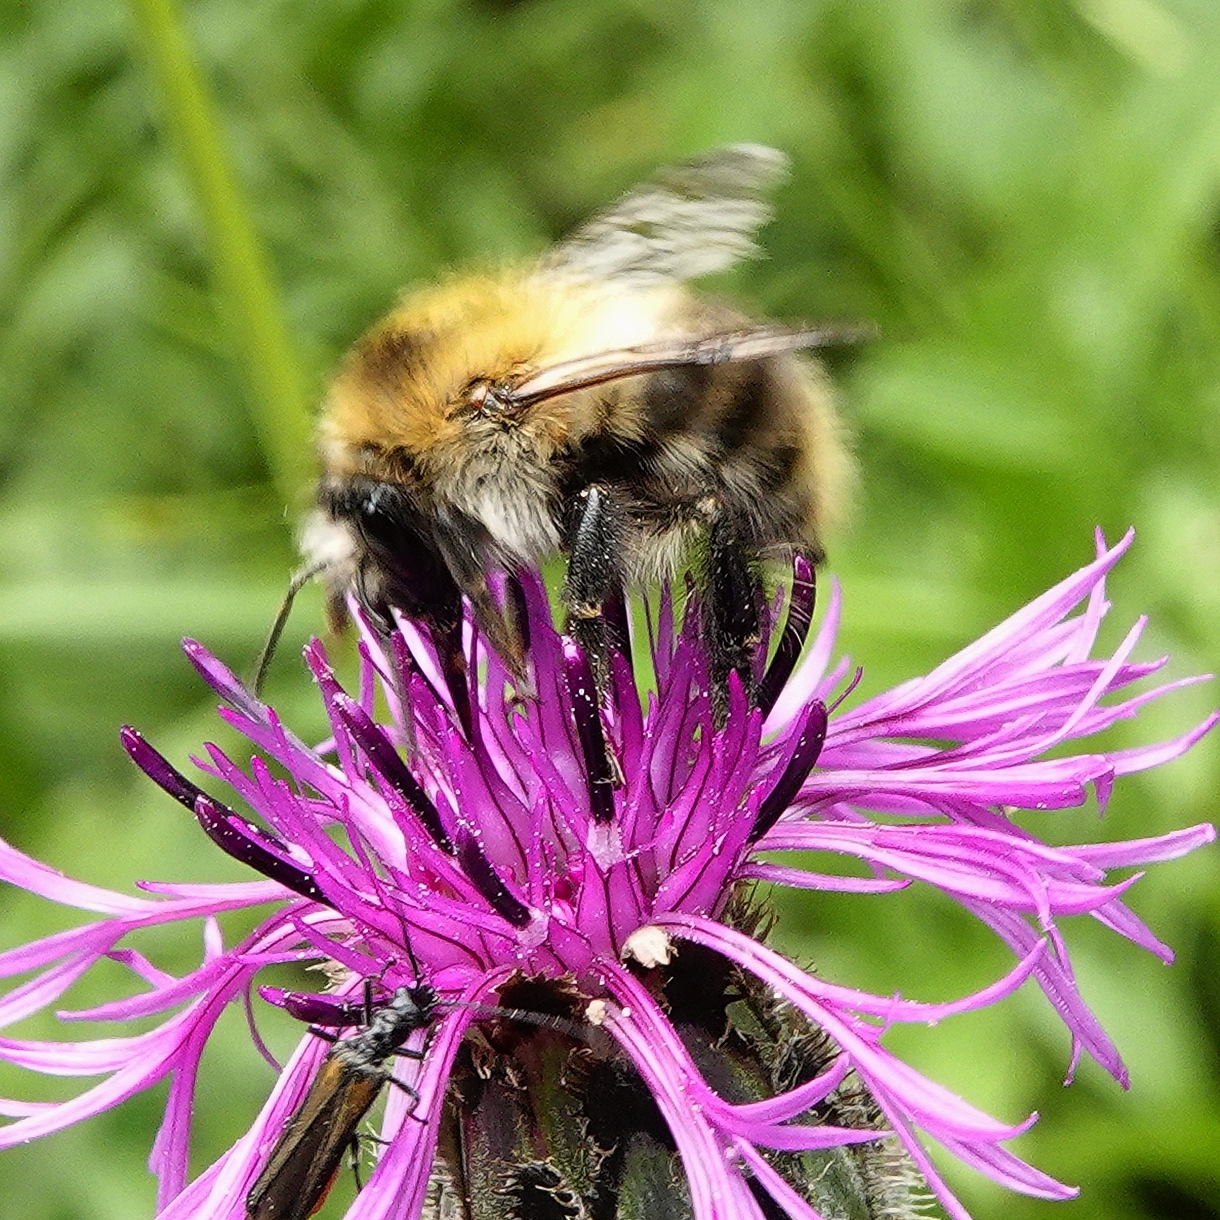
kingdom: Animalia
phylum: Arthropoda
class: Insecta
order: Hymenoptera
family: Apidae
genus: Bombus
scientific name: Bombus pascuorum
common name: Common carder bee
